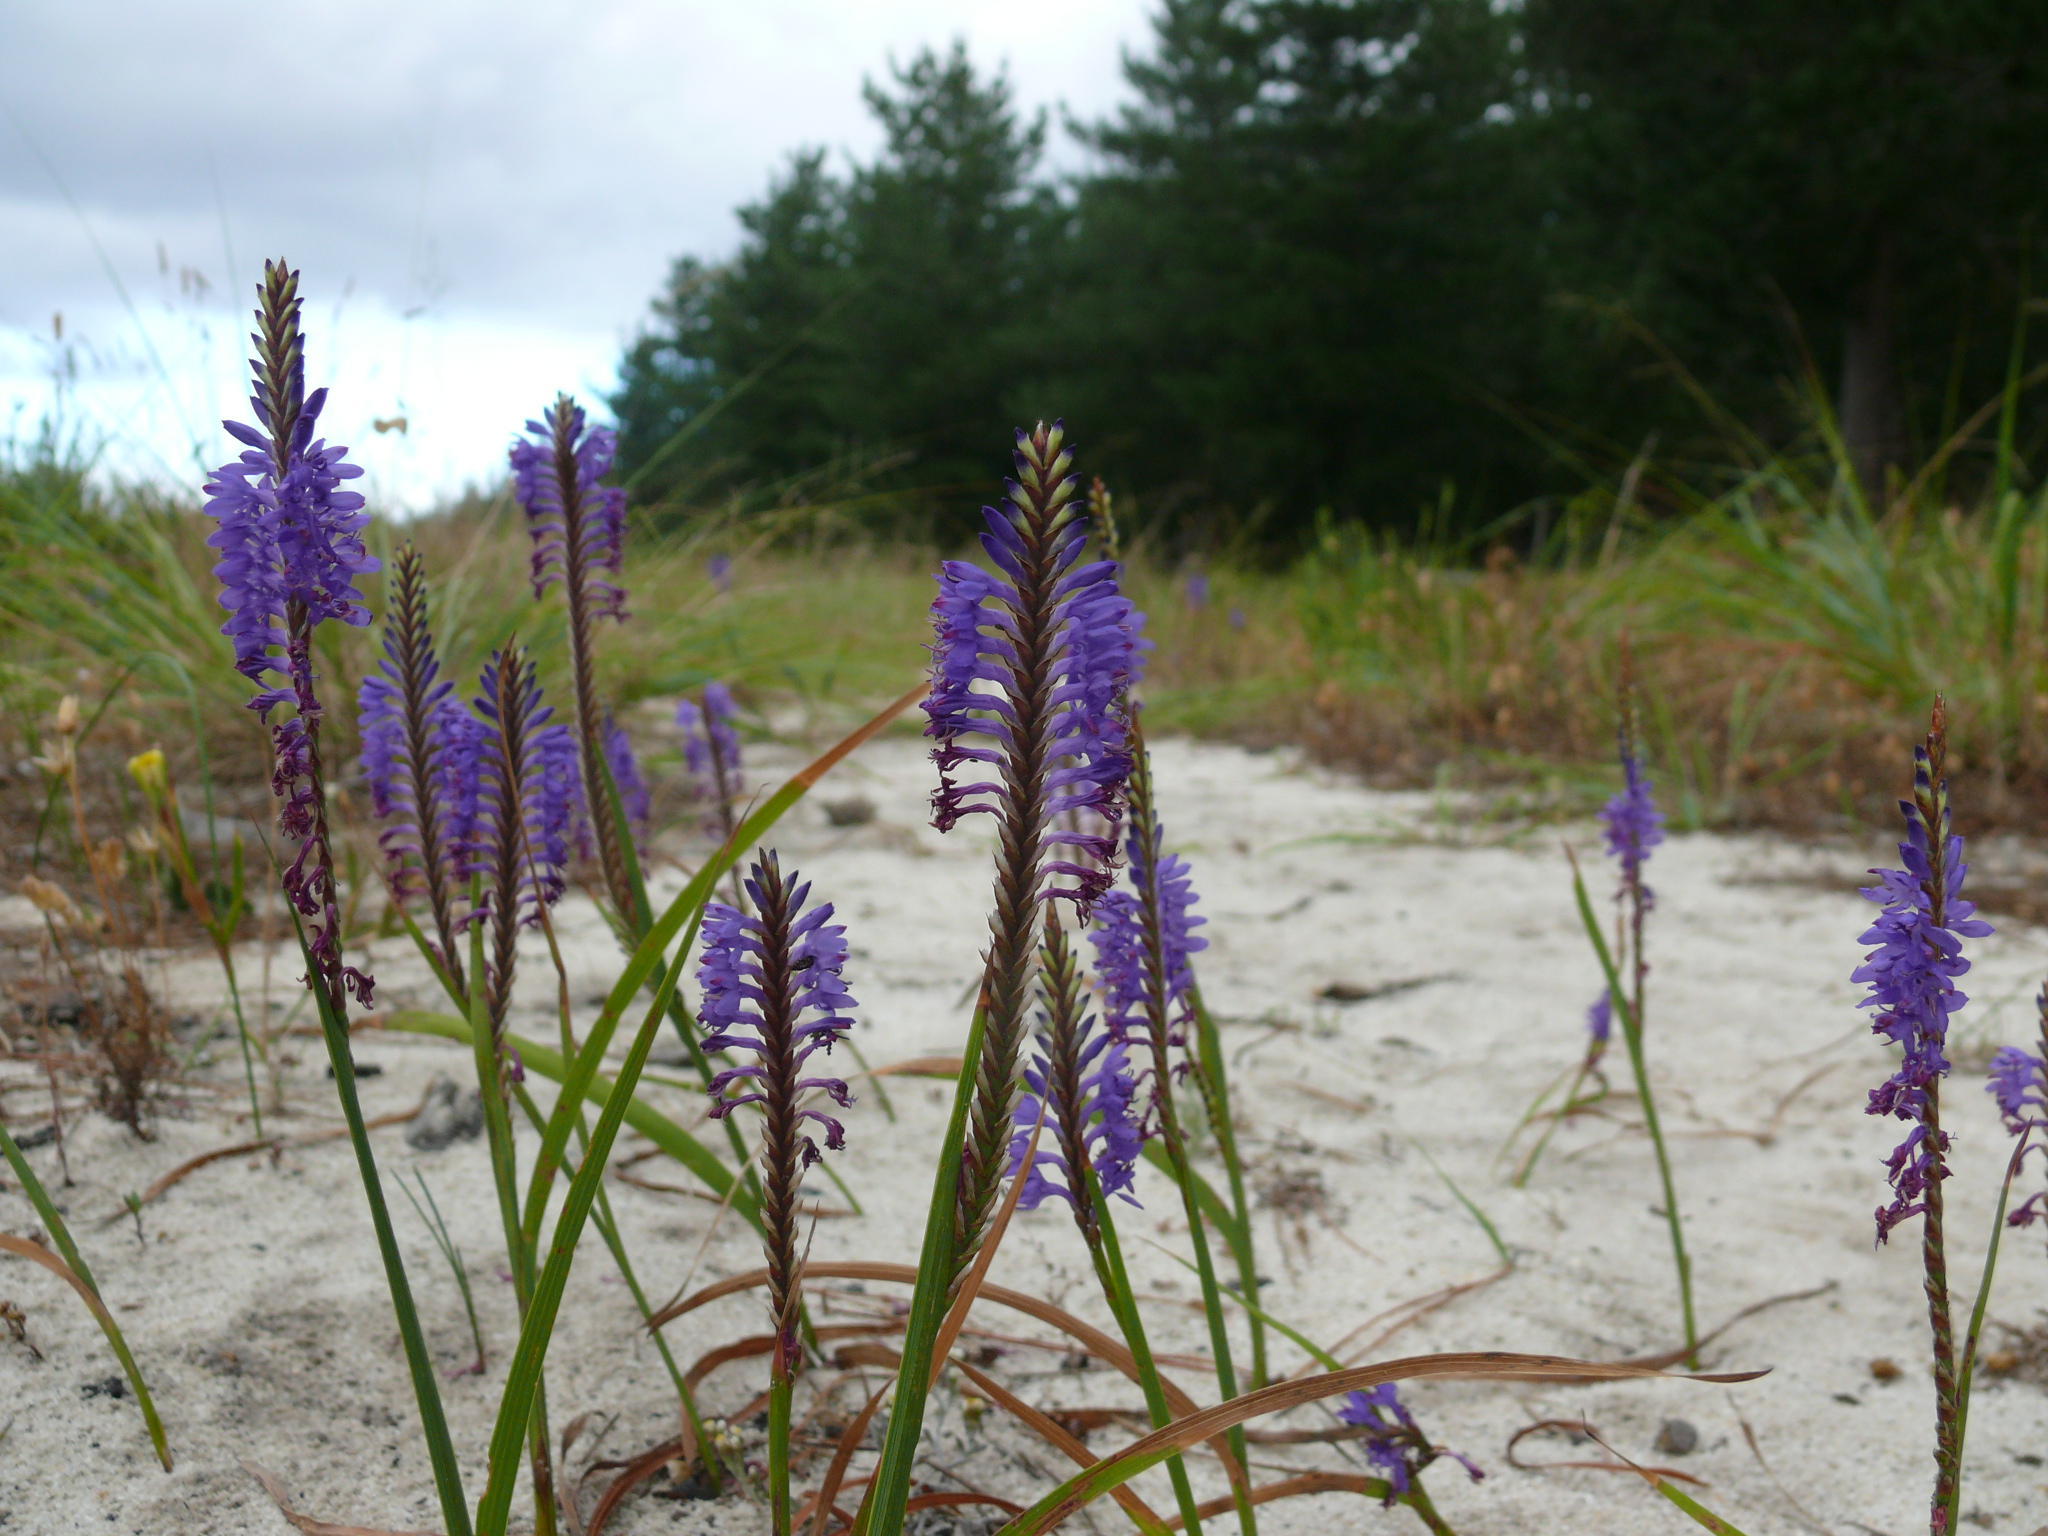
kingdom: Plantae
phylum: Tracheophyta
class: Liliopsida
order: Asparagales
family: Iridaceae
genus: Micranthus
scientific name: Micranthus alopecuroides
